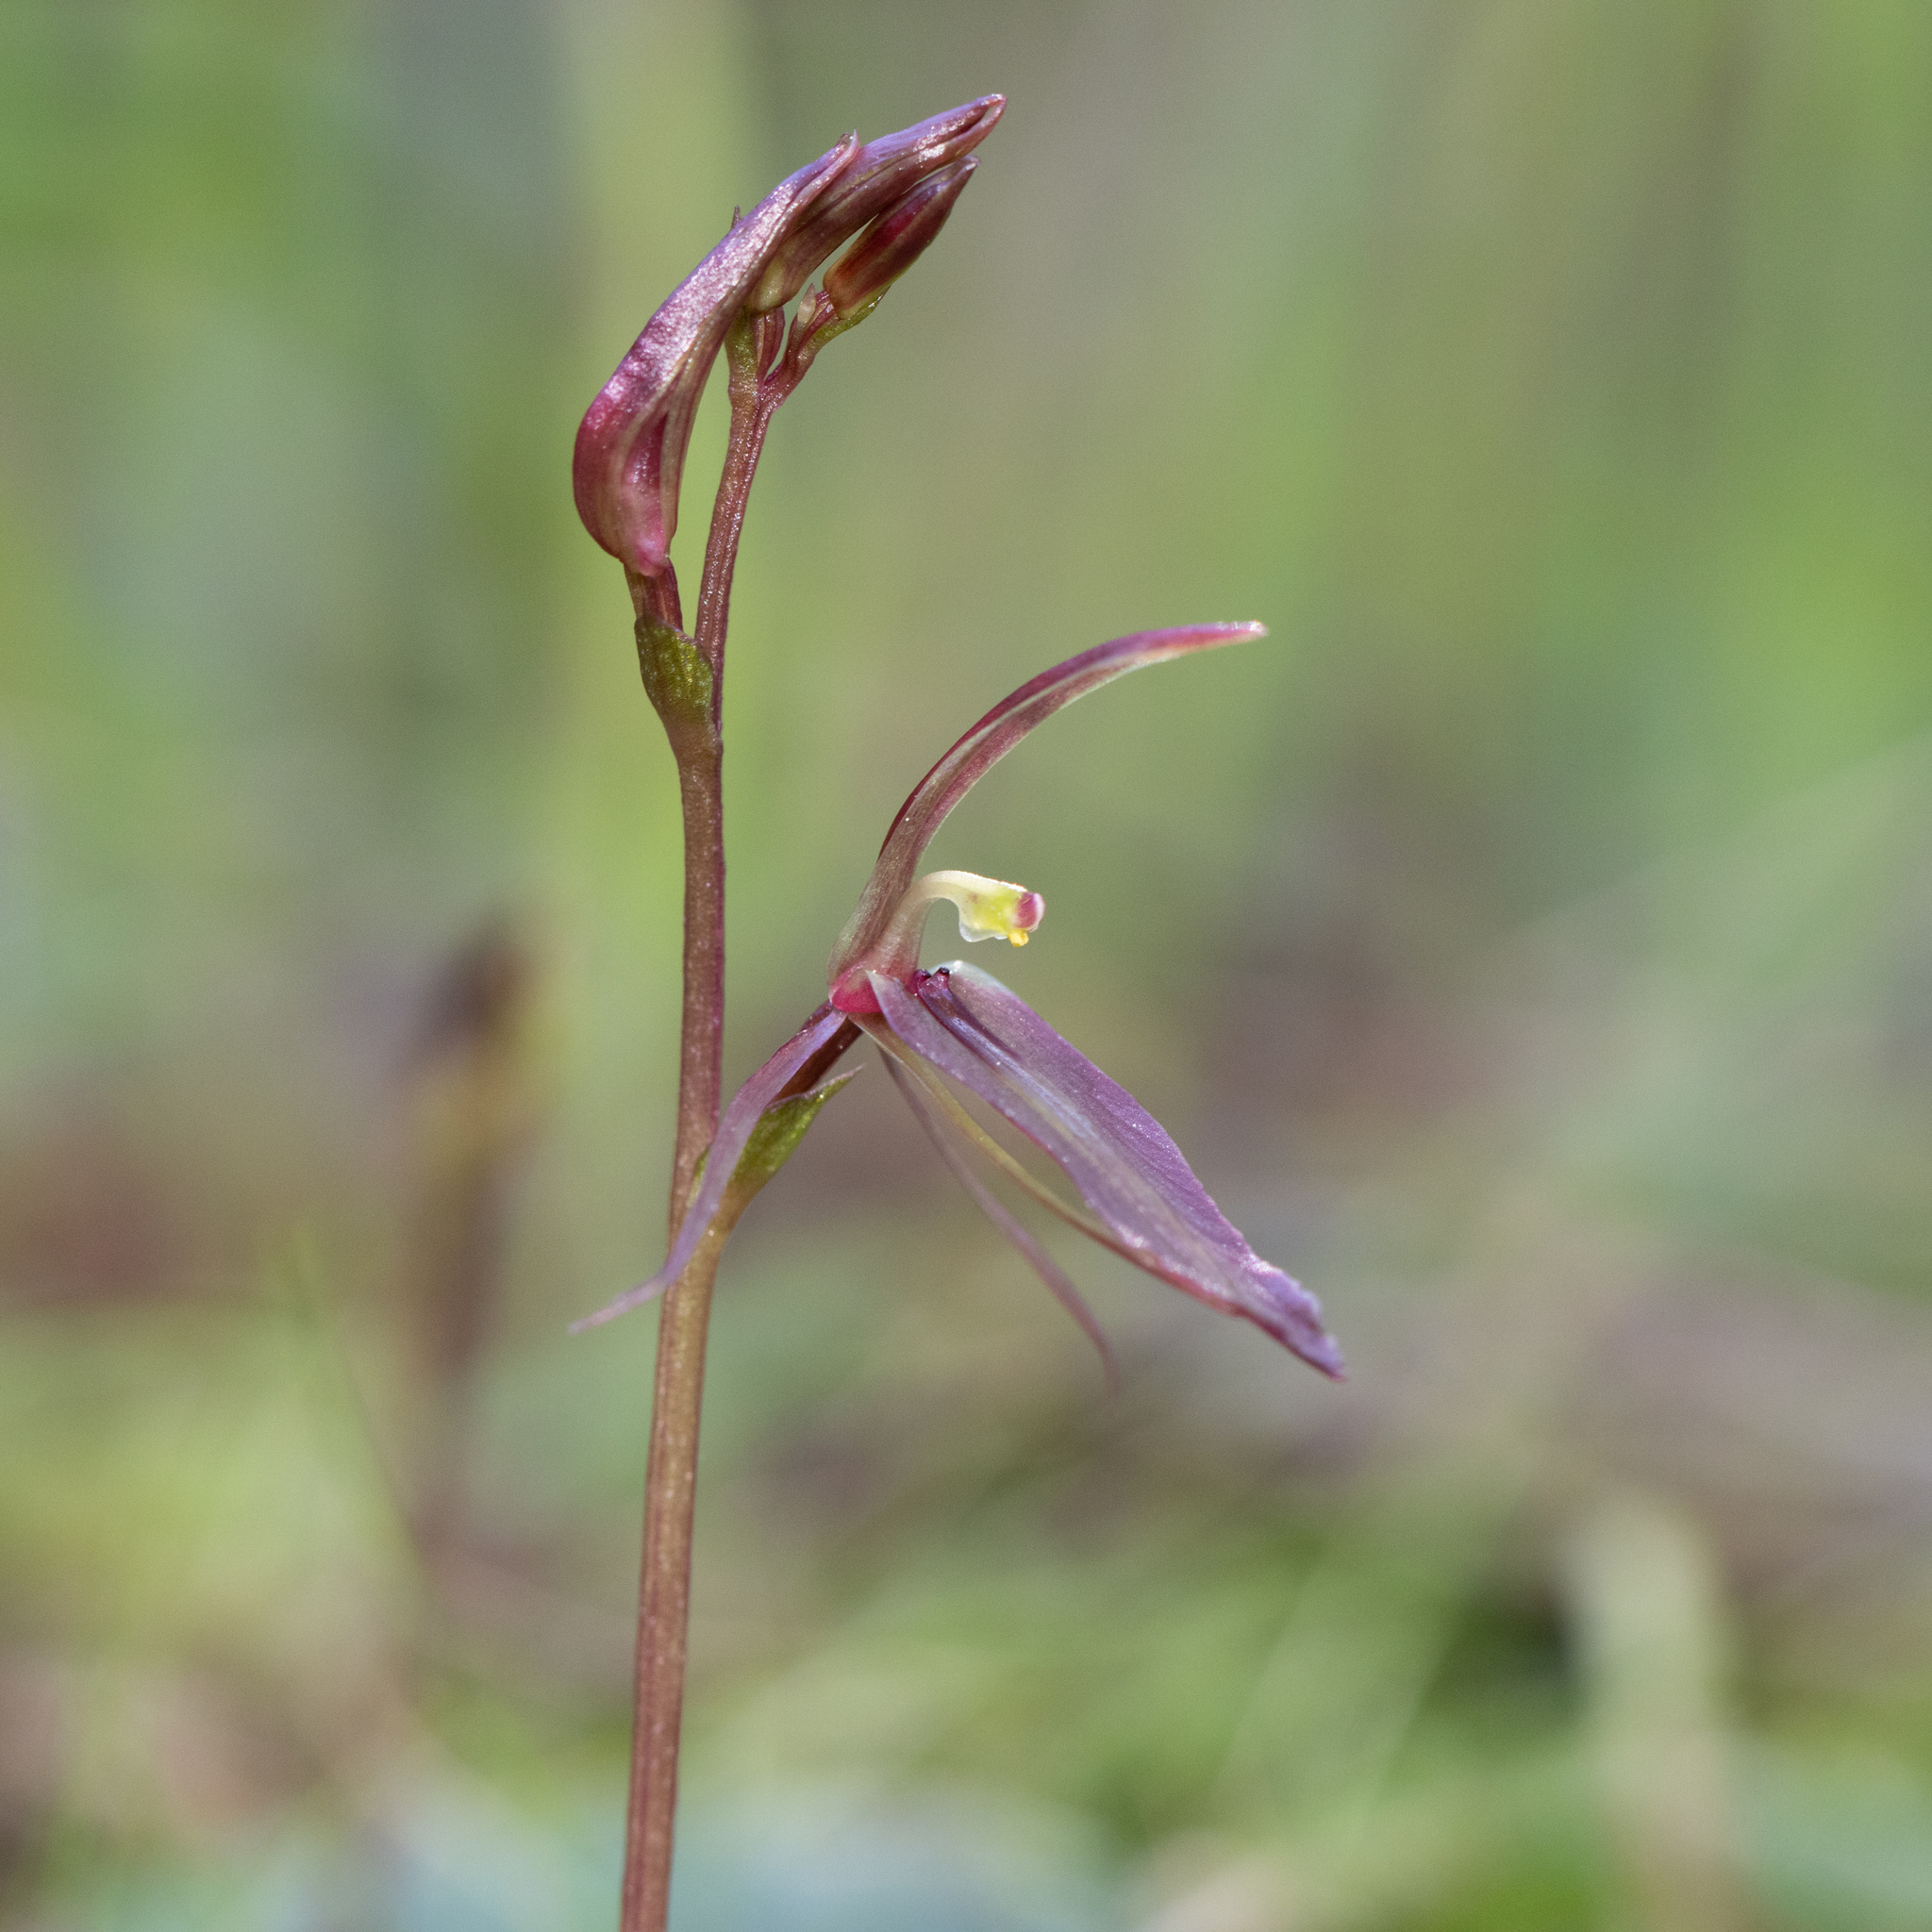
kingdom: Plantae
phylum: Tracheophyta
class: Liliopsida
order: Asparagales
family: Orchidaceae
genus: Cyrtostylis
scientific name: Cyrtostylis robusta
